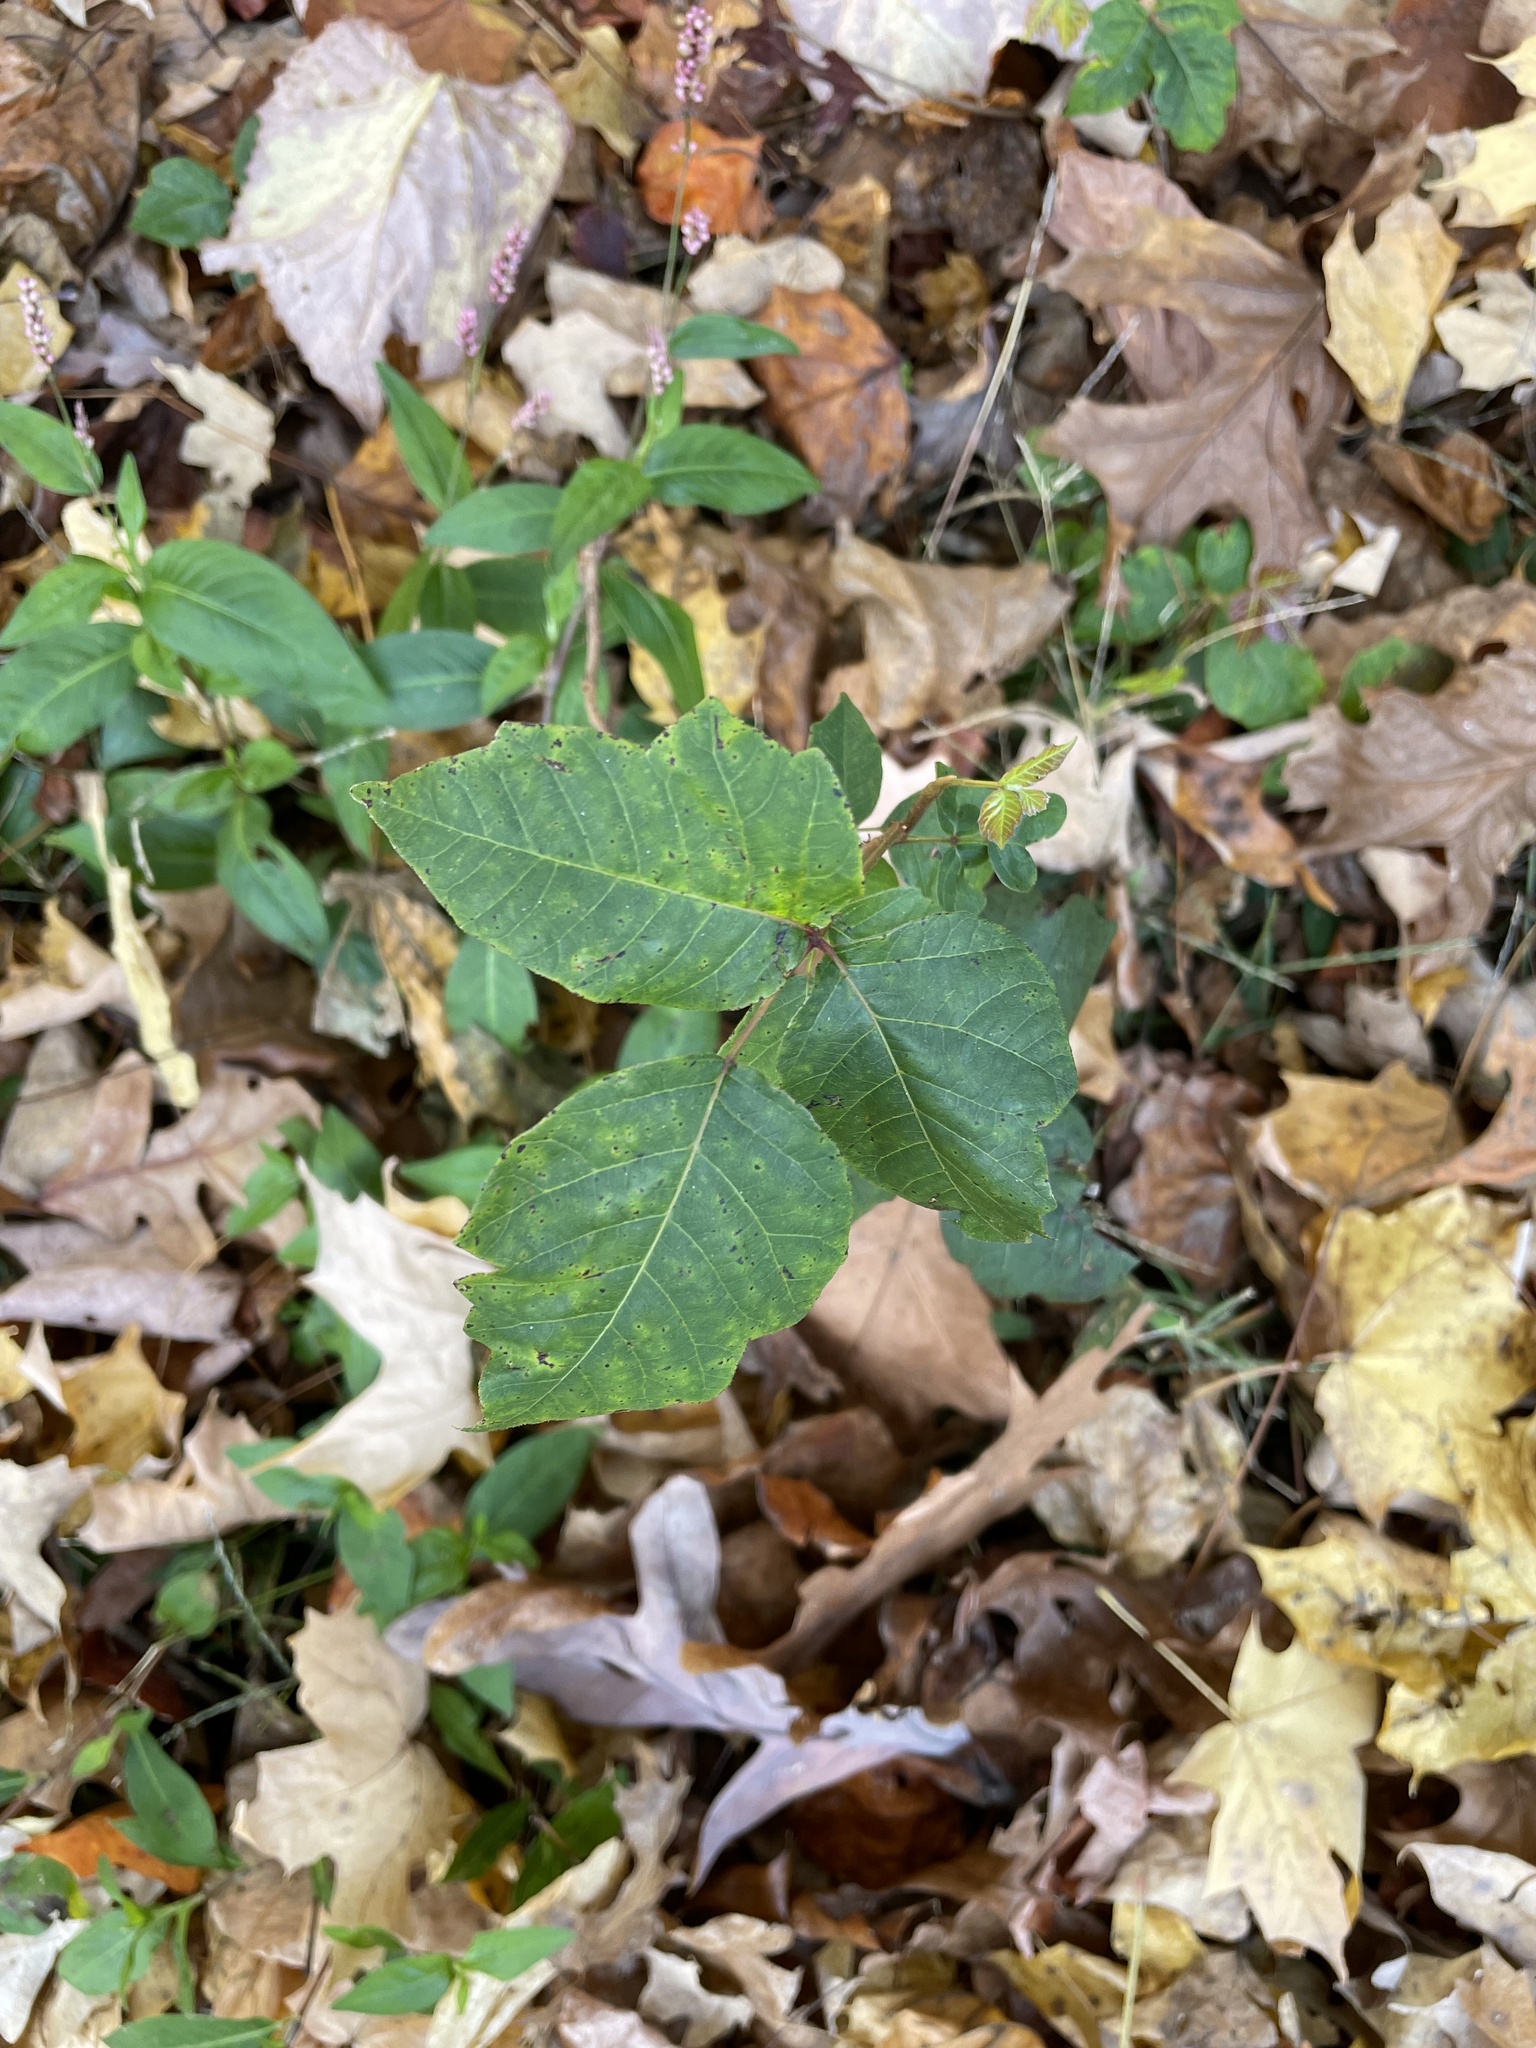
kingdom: Plantae
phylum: Tracheophyta
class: Magnoliopsida
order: Sapindales
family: Anacardiaceae
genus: Toxicodendron
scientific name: Toxicodendron radicans
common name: Poison ivy
